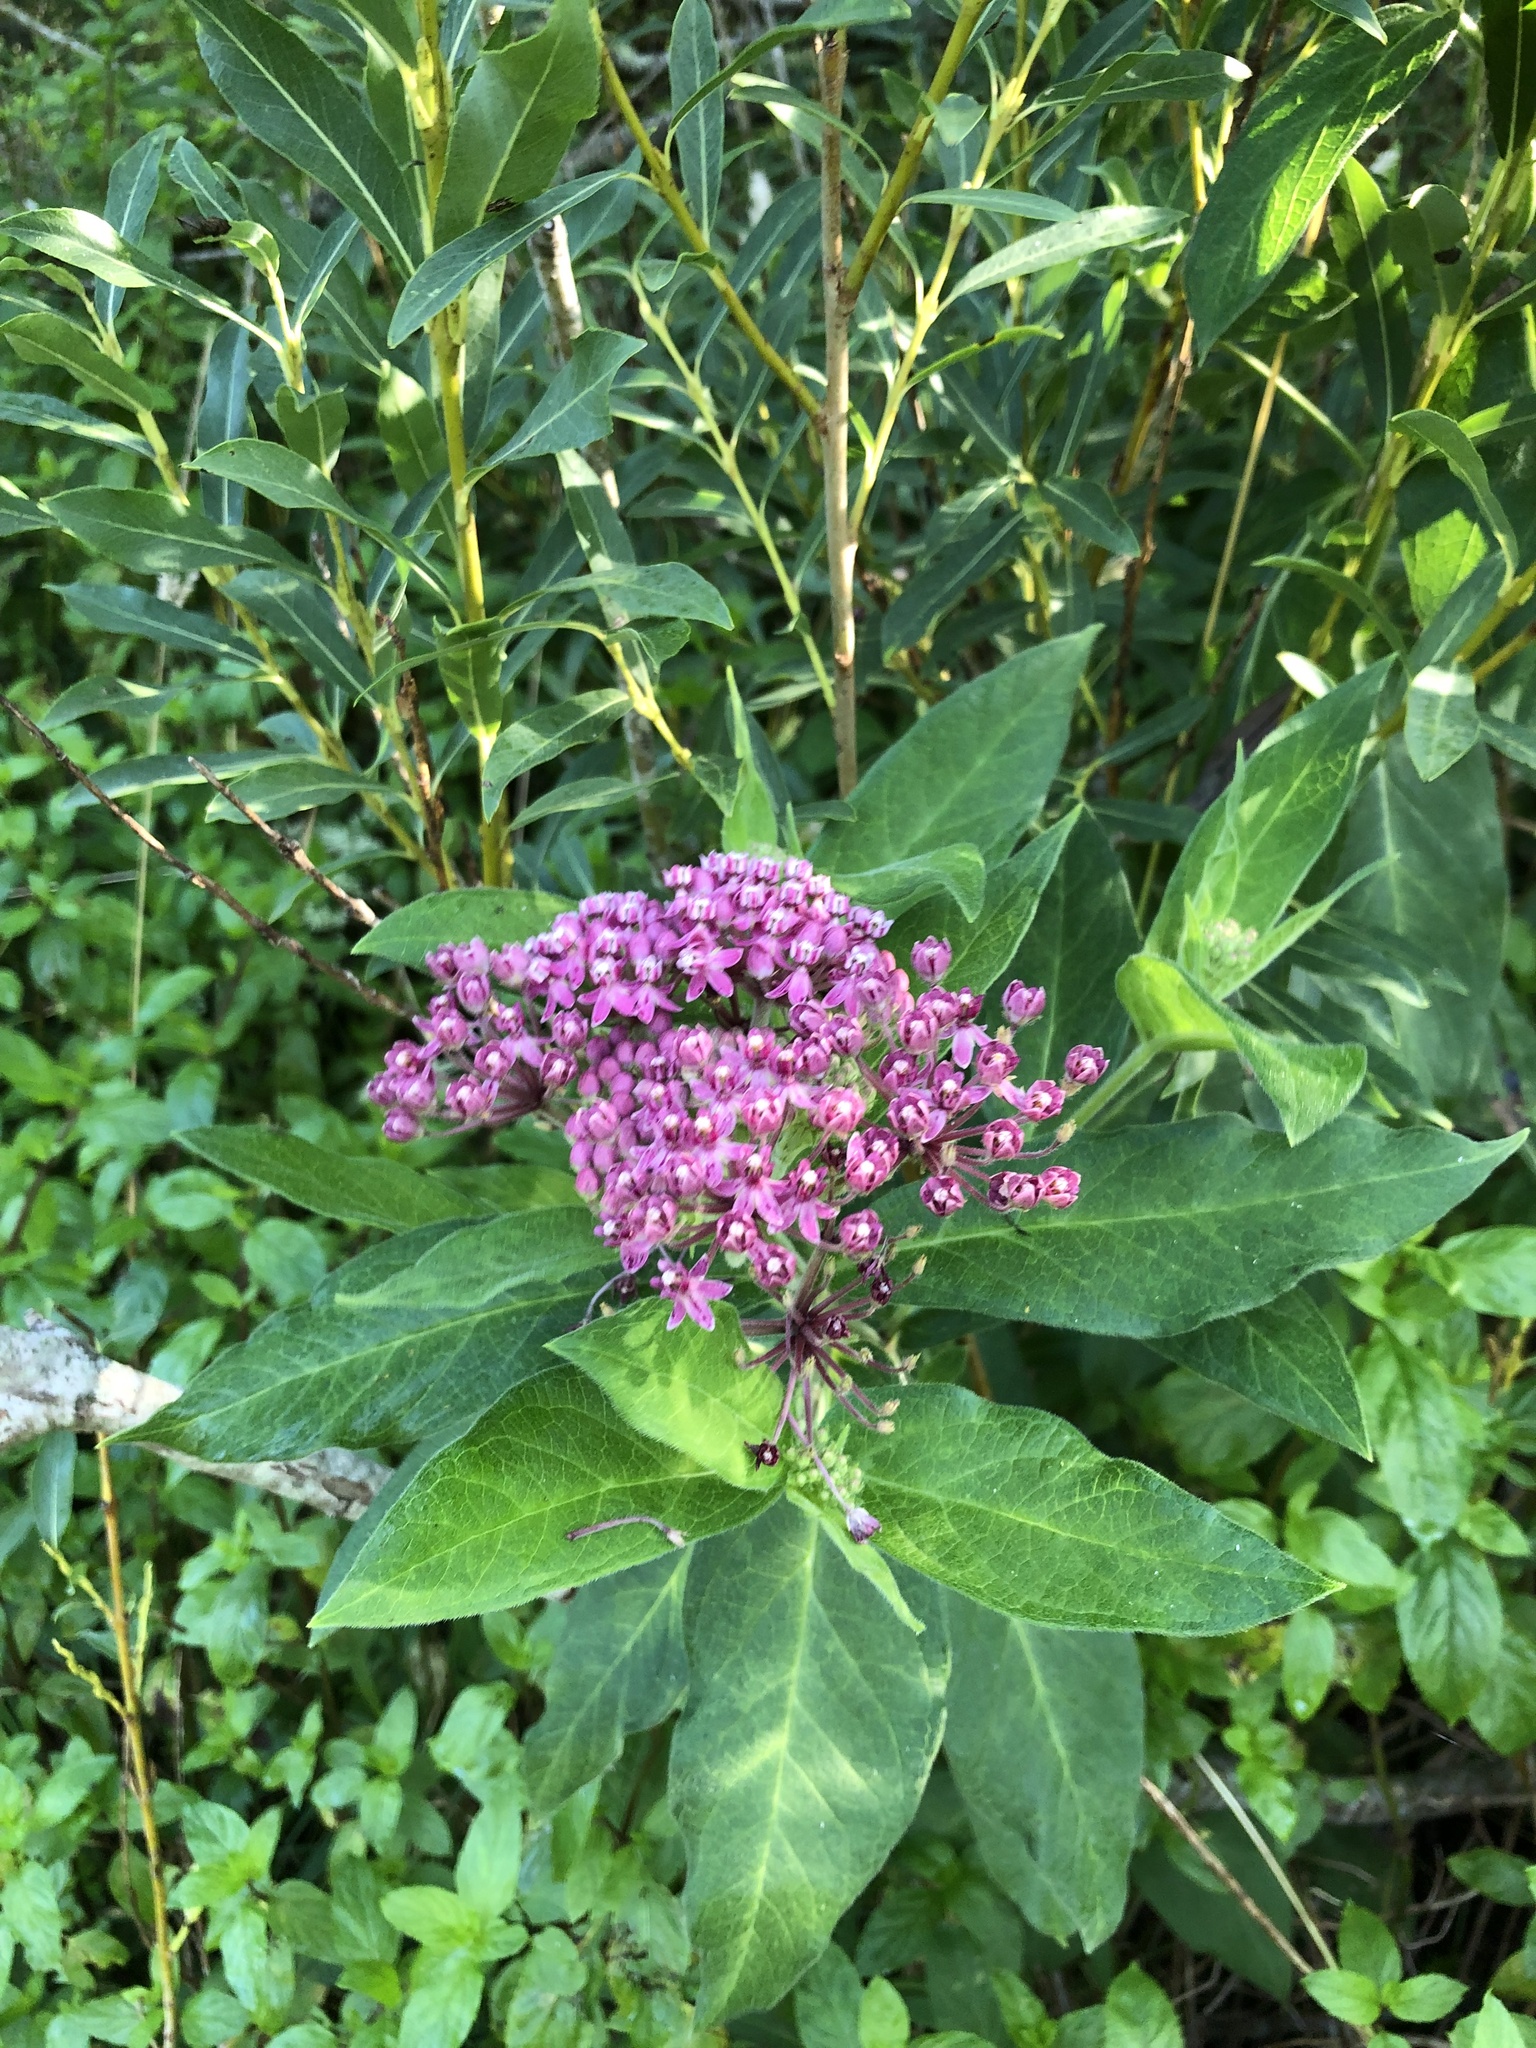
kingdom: Plantae
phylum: Tracheophyta
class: Magnoliopsida
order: Gentianales
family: Apocynaceae
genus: Asclepias
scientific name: Asclepias incarnata
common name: Swamp milkweed
